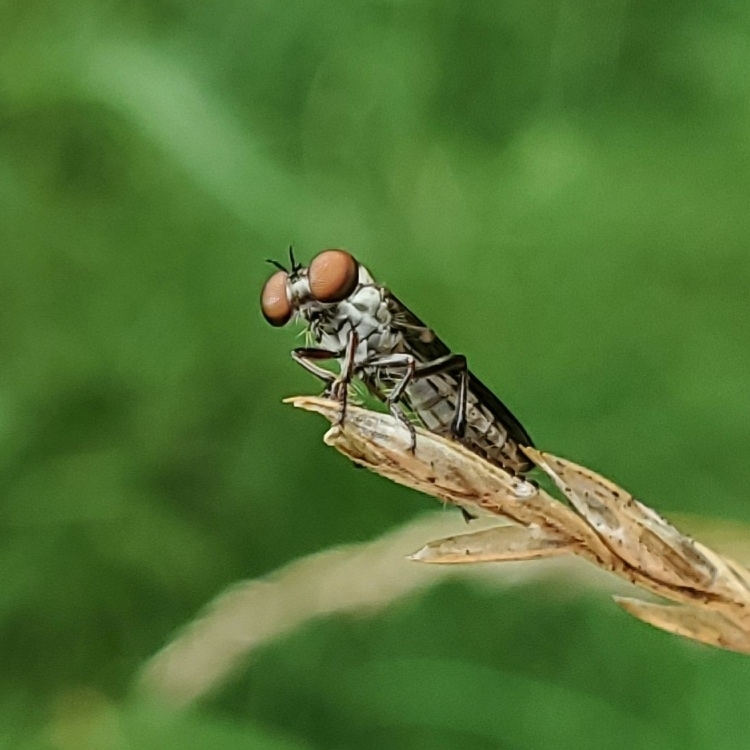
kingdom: Animalia
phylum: Arthropoda
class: Insecta
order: Diptera
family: Asilidae
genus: Holcocephala
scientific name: Holcocephala calva
